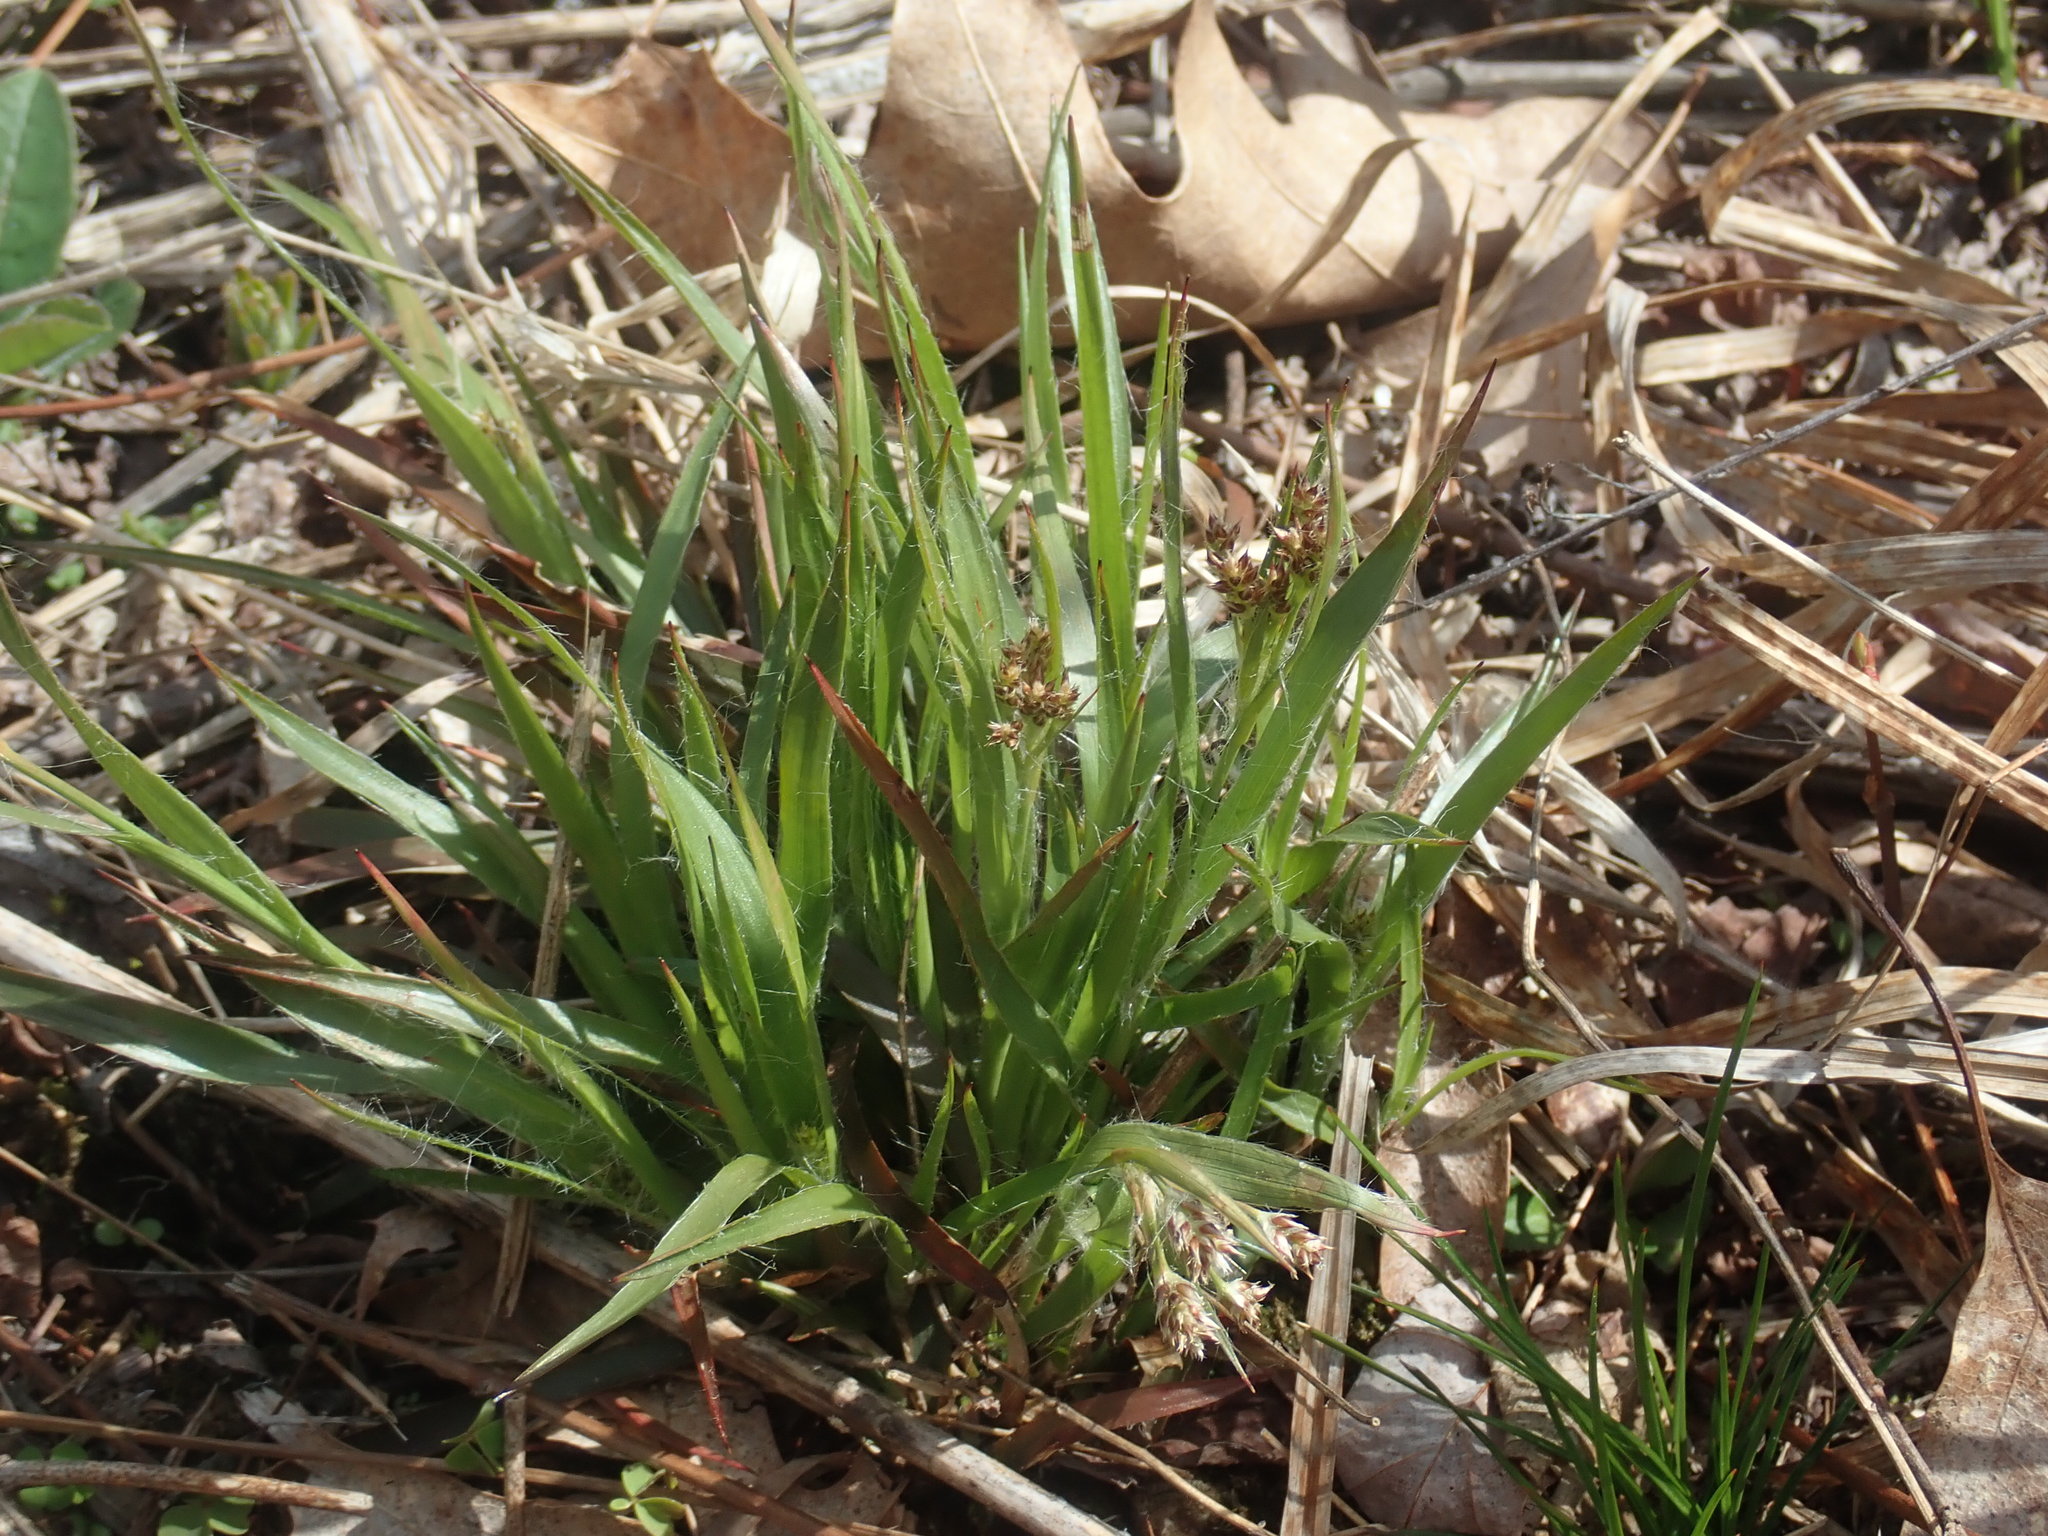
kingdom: Plantae
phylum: Tracheophyta
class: Liliopsida
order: Poales
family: Juncaceae
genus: Luzula
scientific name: Luzula multiflora
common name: Heath wood-rush
